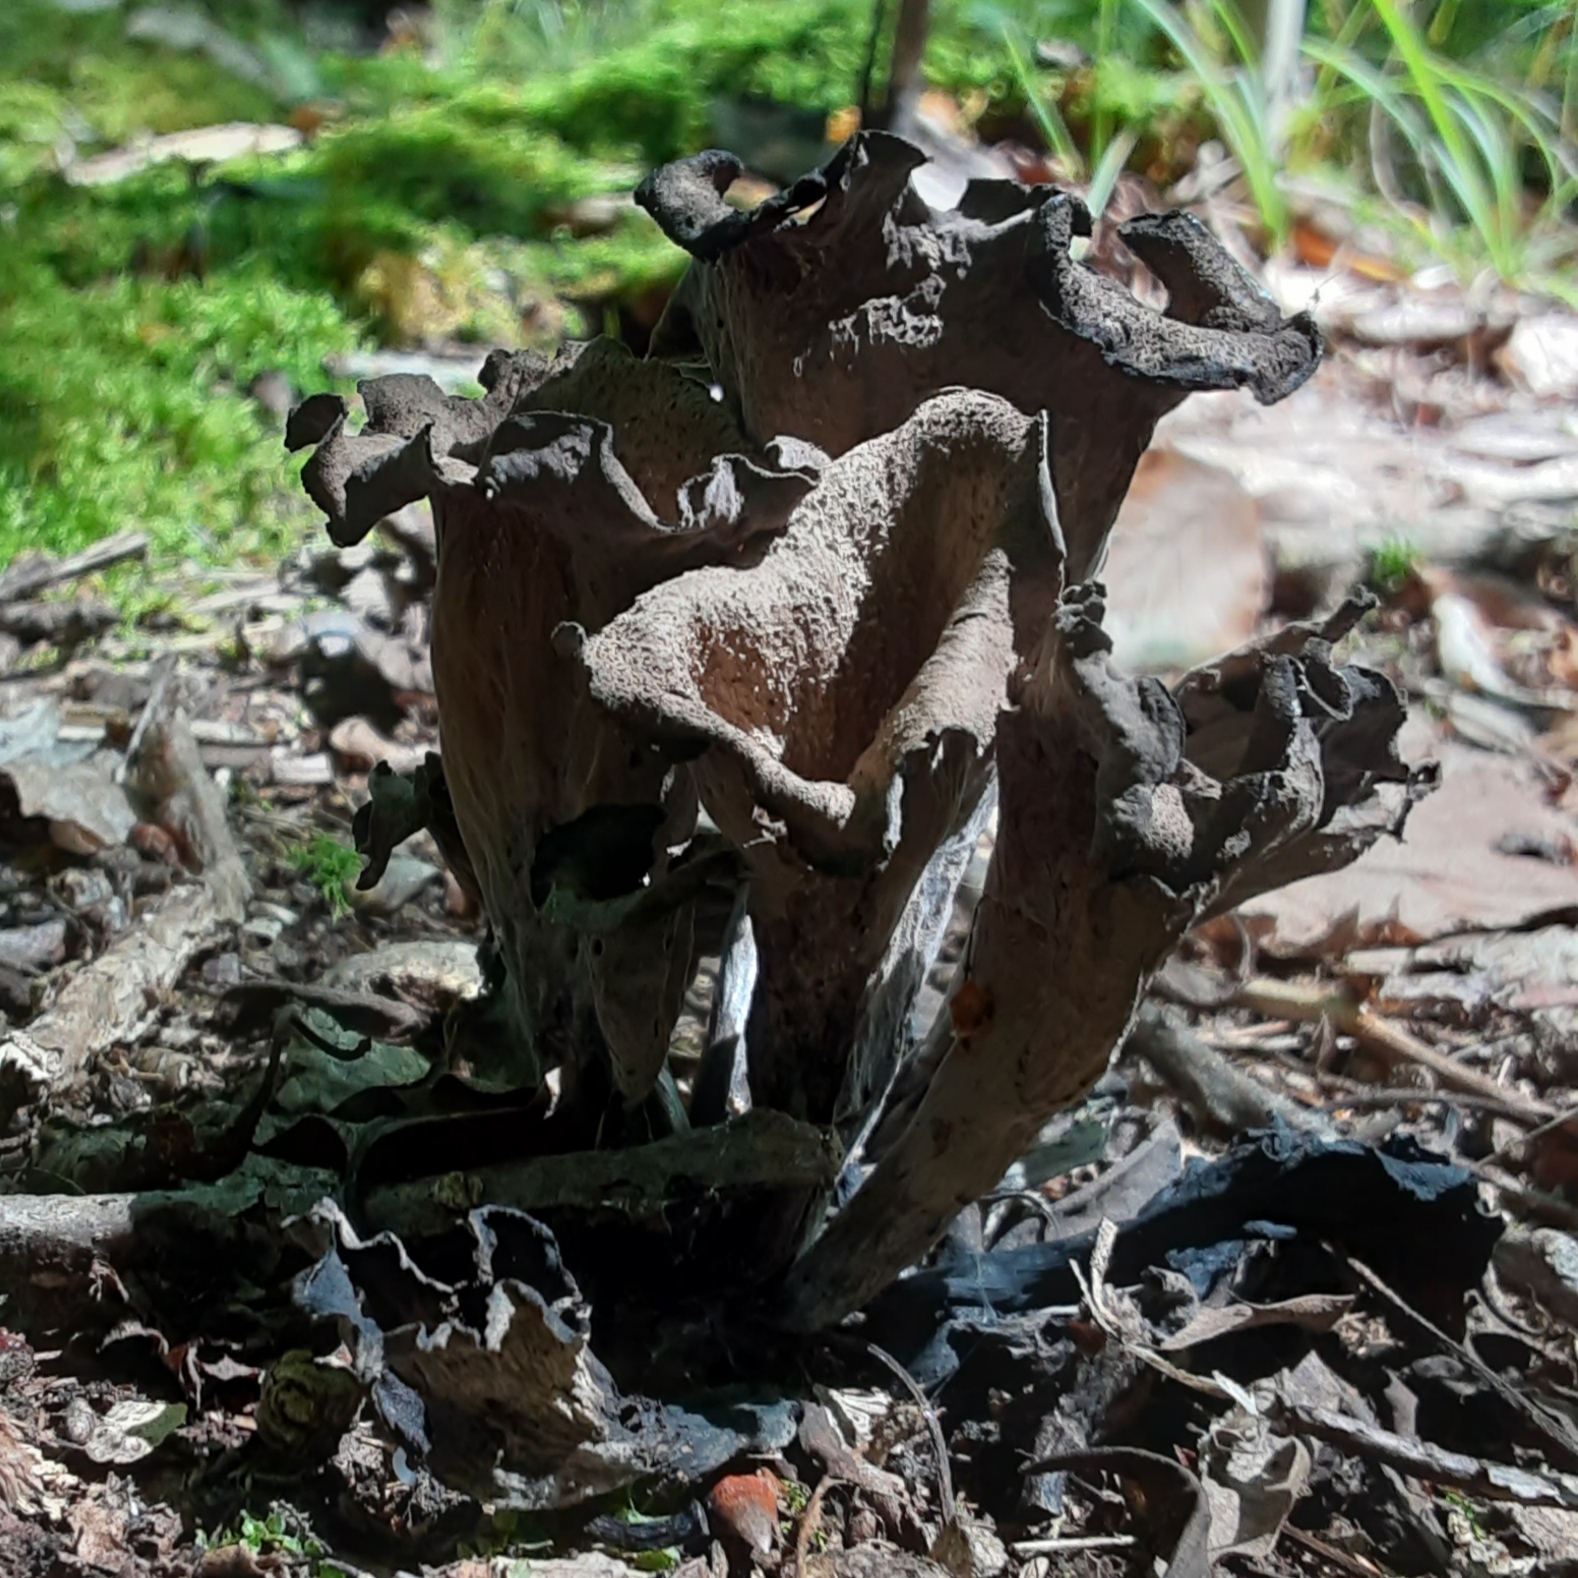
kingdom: Fungi
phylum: Basidiomycota
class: Agaricomycetes
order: Cantharellales
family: Hydnaceae
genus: Craterellus
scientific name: Craterellus cornucopioides
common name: Horn of plenty
